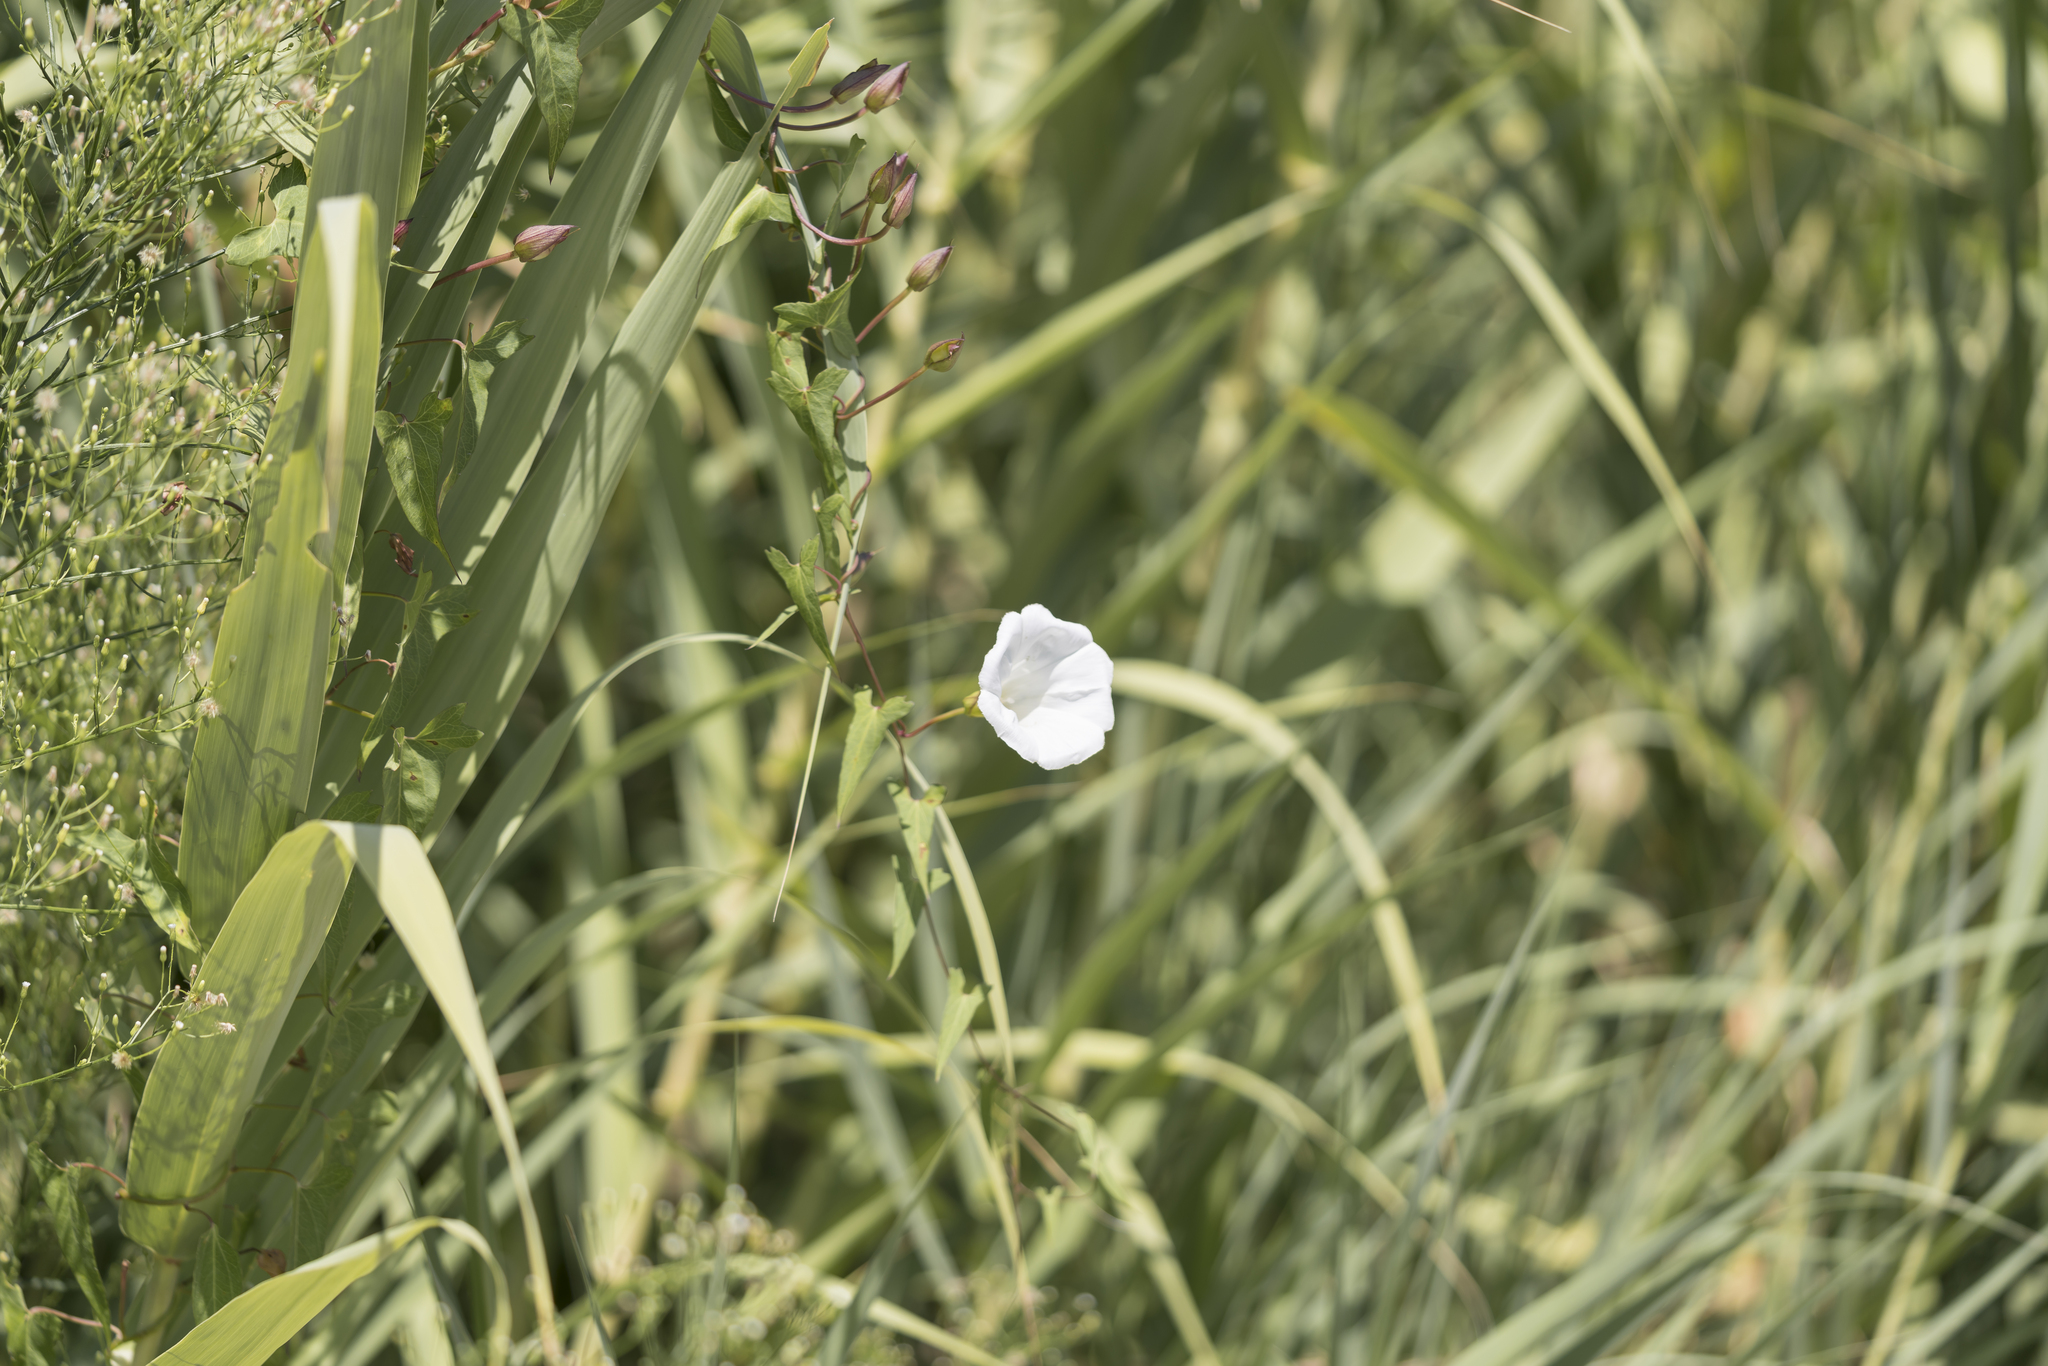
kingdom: Plantae
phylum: Tracheophyta
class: Magnoliopsida
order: Solanales
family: Convolvulaceae
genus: Calystegia
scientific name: Calystegia sepium
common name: Hedge bindweed
